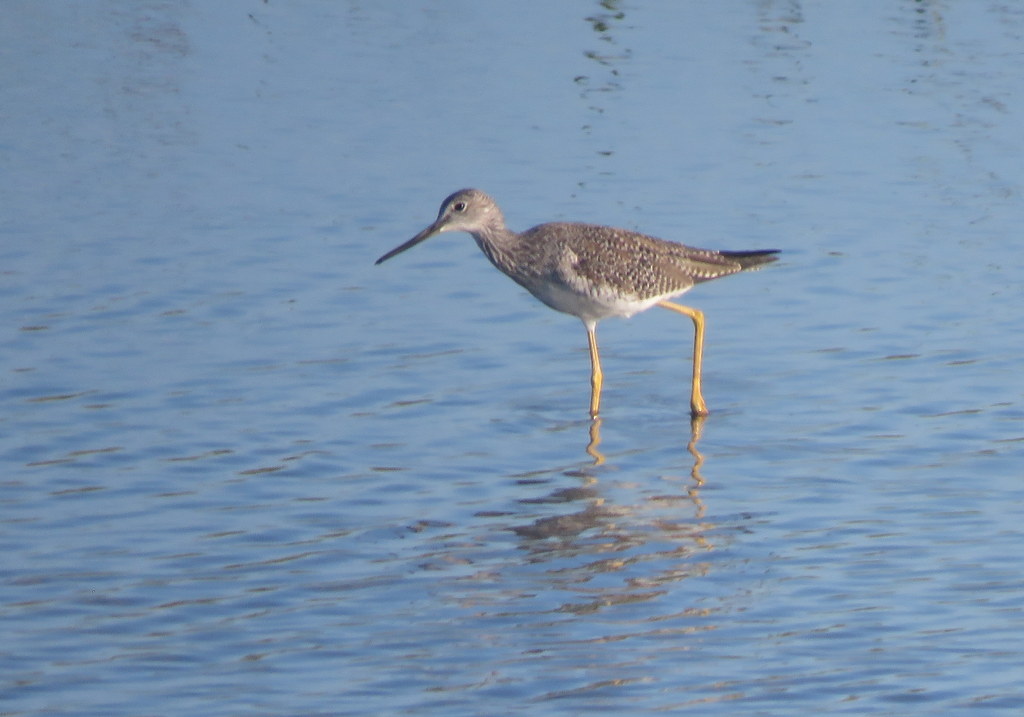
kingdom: Animalia
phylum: Chordata
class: Aves
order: Charadriiformes
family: Scolopacidae
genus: Tringa
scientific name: Tringa melanoleuca
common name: Greater yellowlegs
